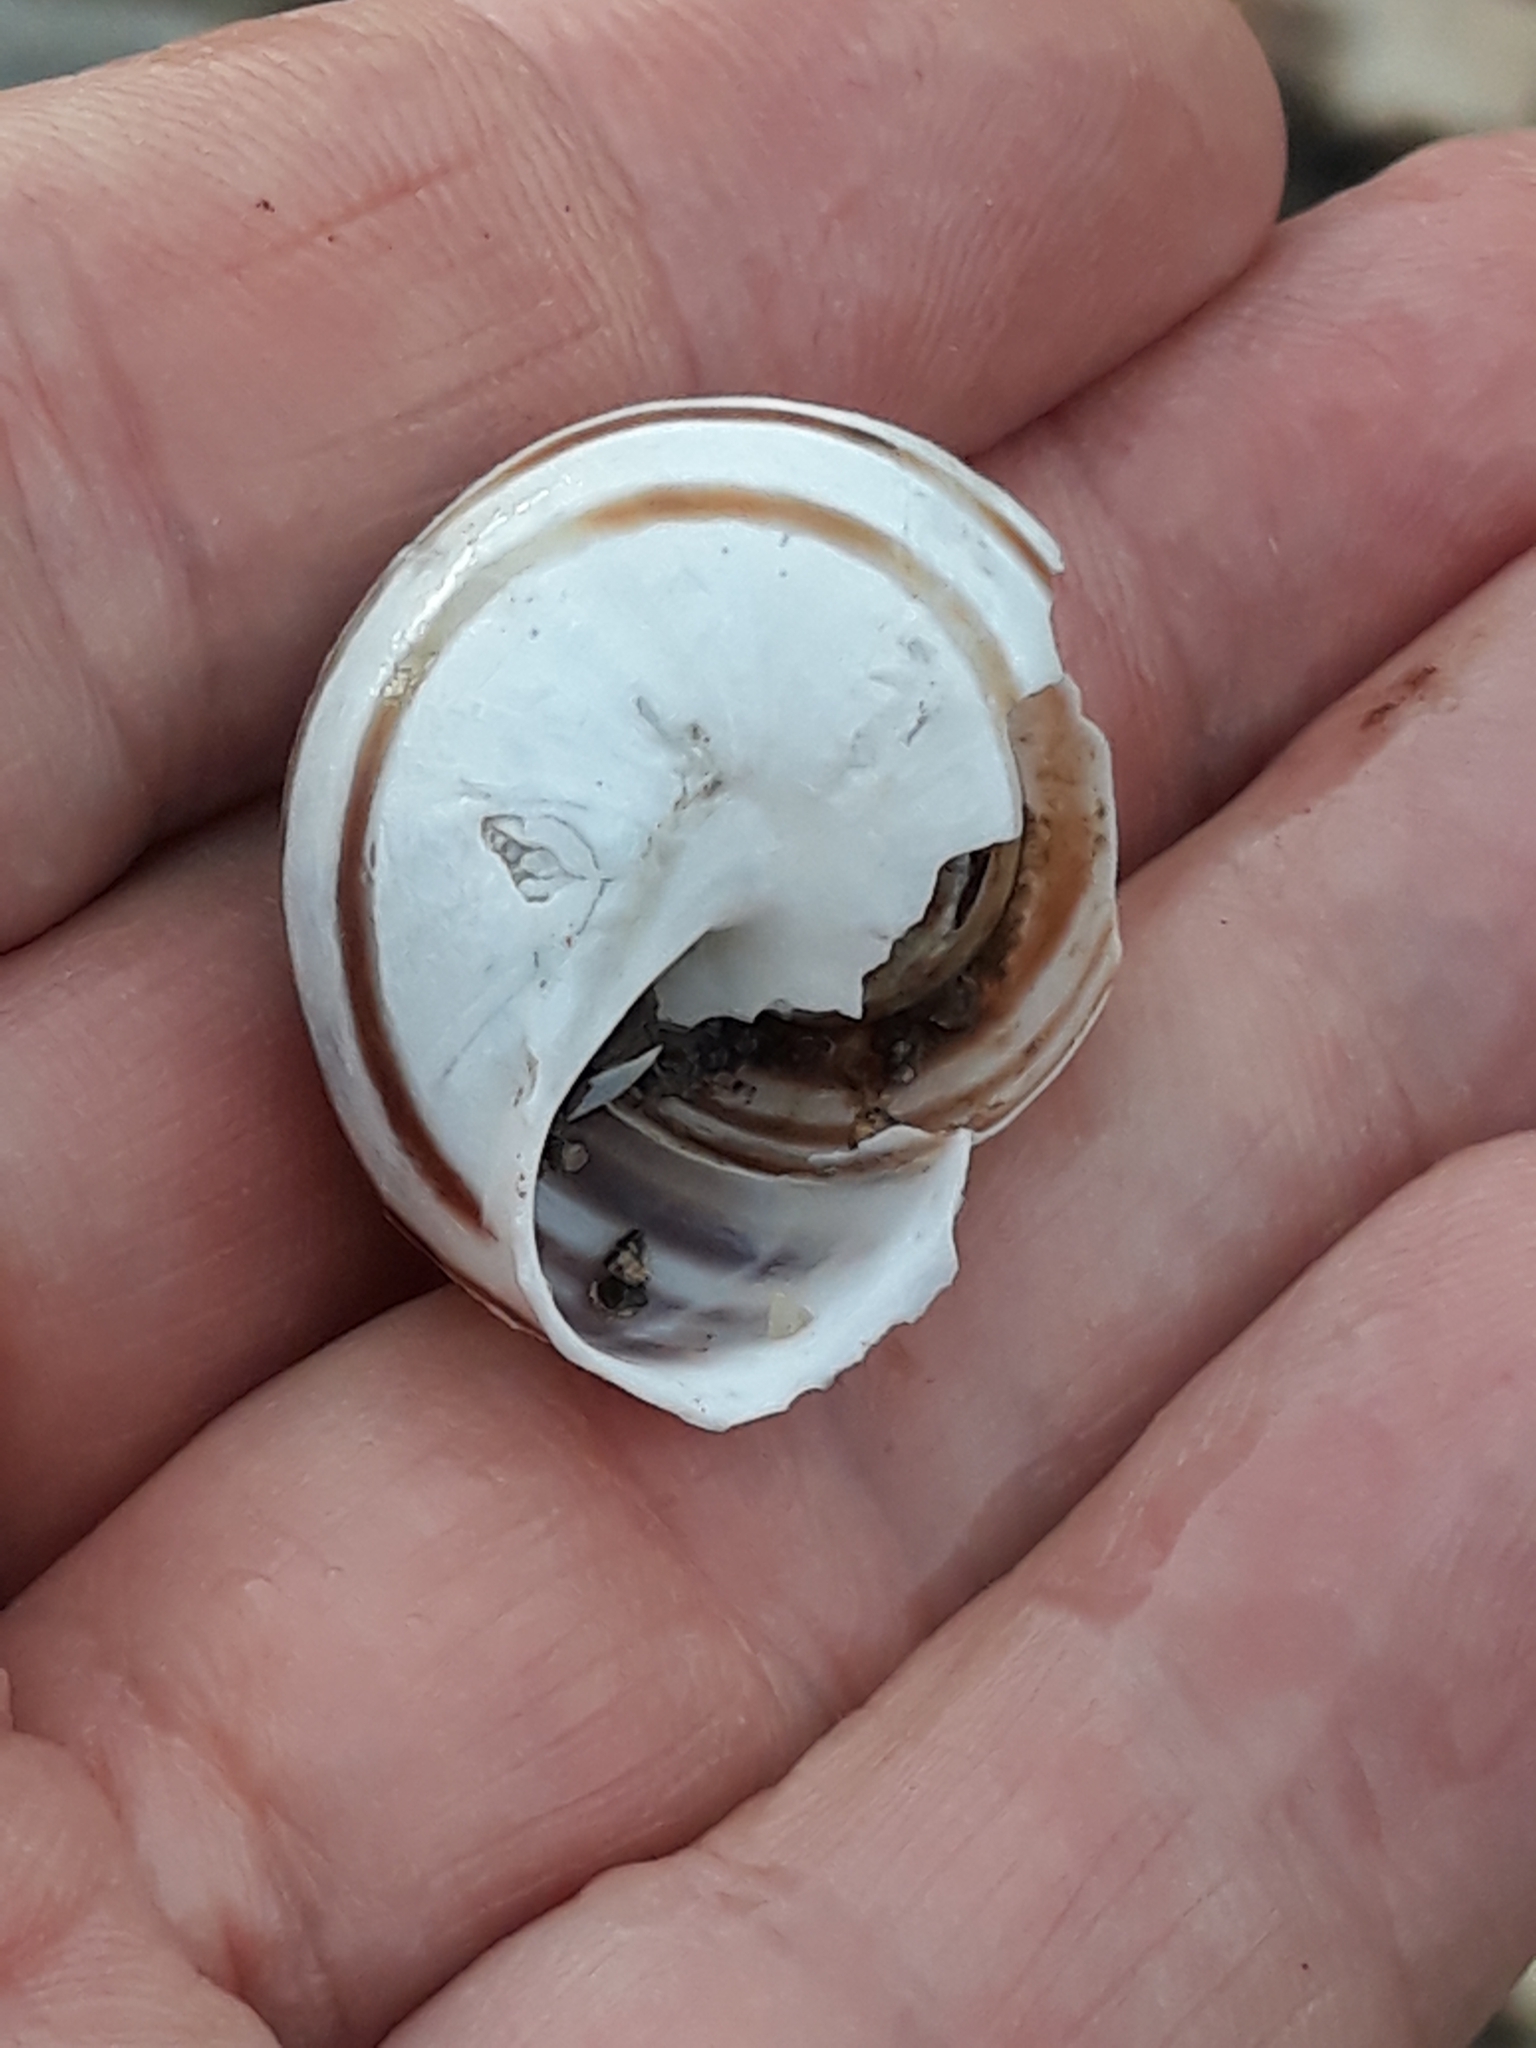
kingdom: Animalia
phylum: Mollusca
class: Gastropoda
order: Stylommatophora
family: Helicidae
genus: Eobania
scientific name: Eobania vermiculata
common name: Chocolateband snail
